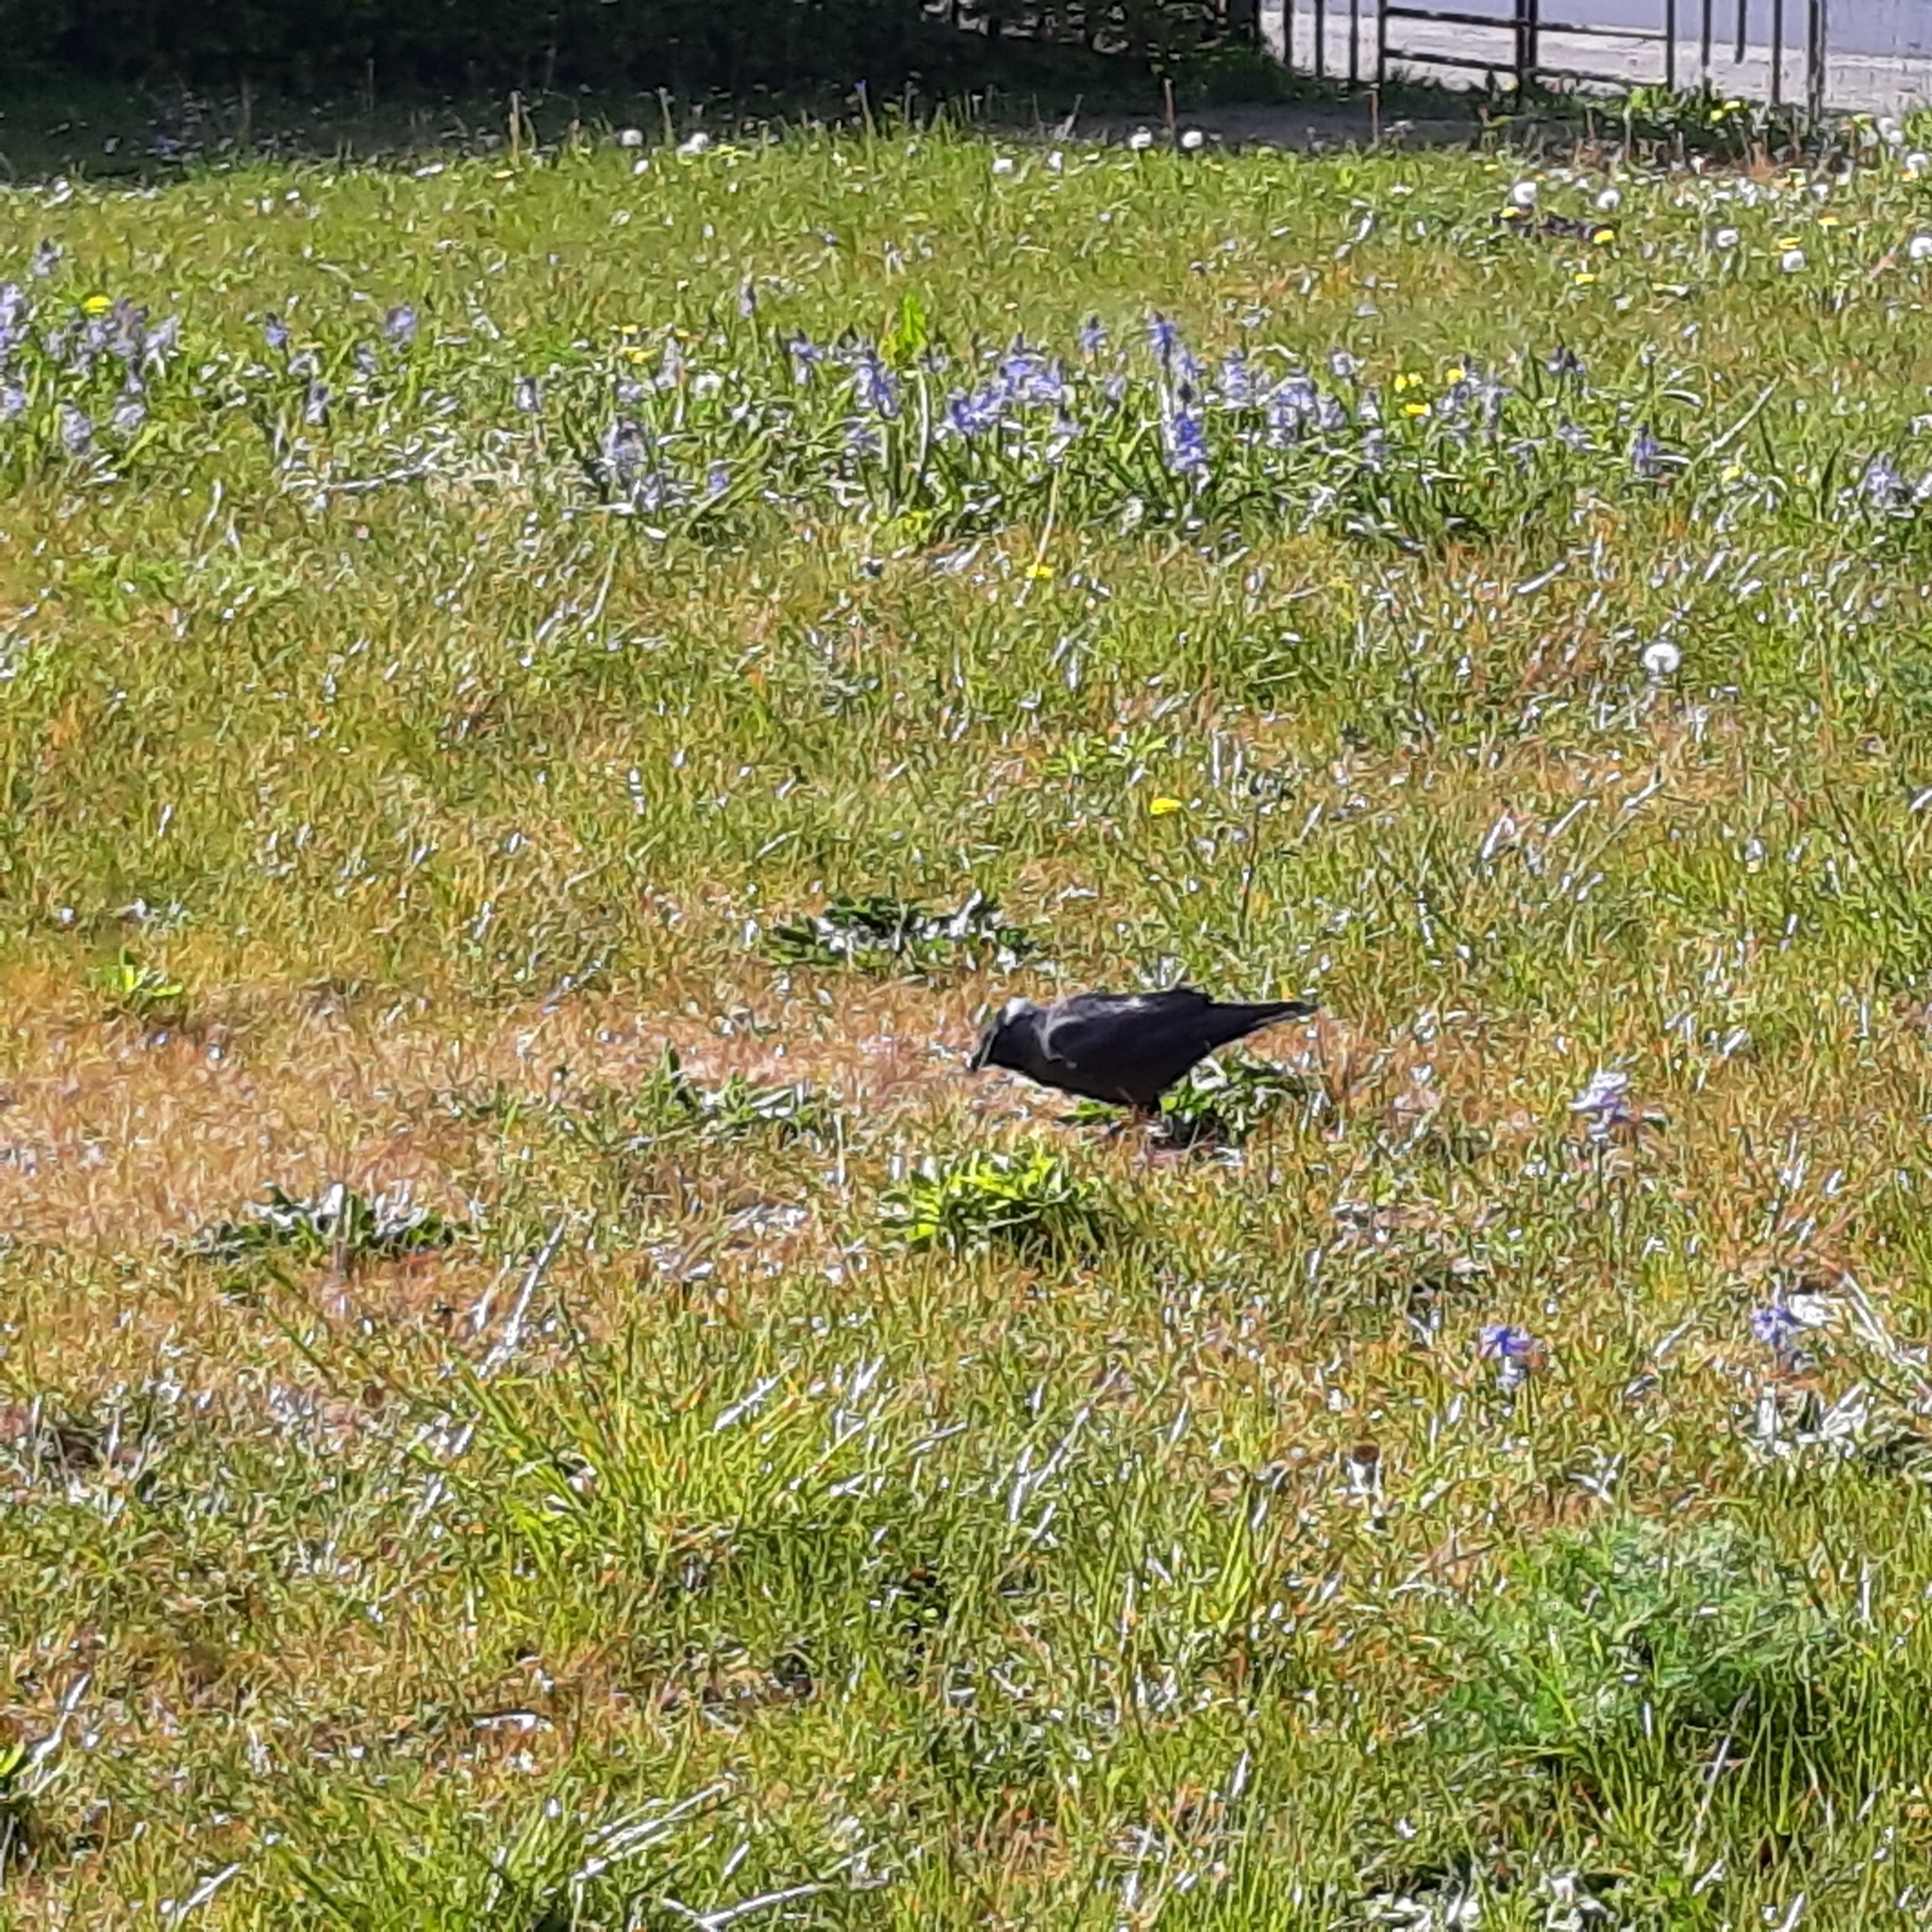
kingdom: Animalia
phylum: Chordata
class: Aves
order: Passeriformes
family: Corvidae
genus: Coloeus
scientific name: Coloeus monedula
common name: Western jackdaw
